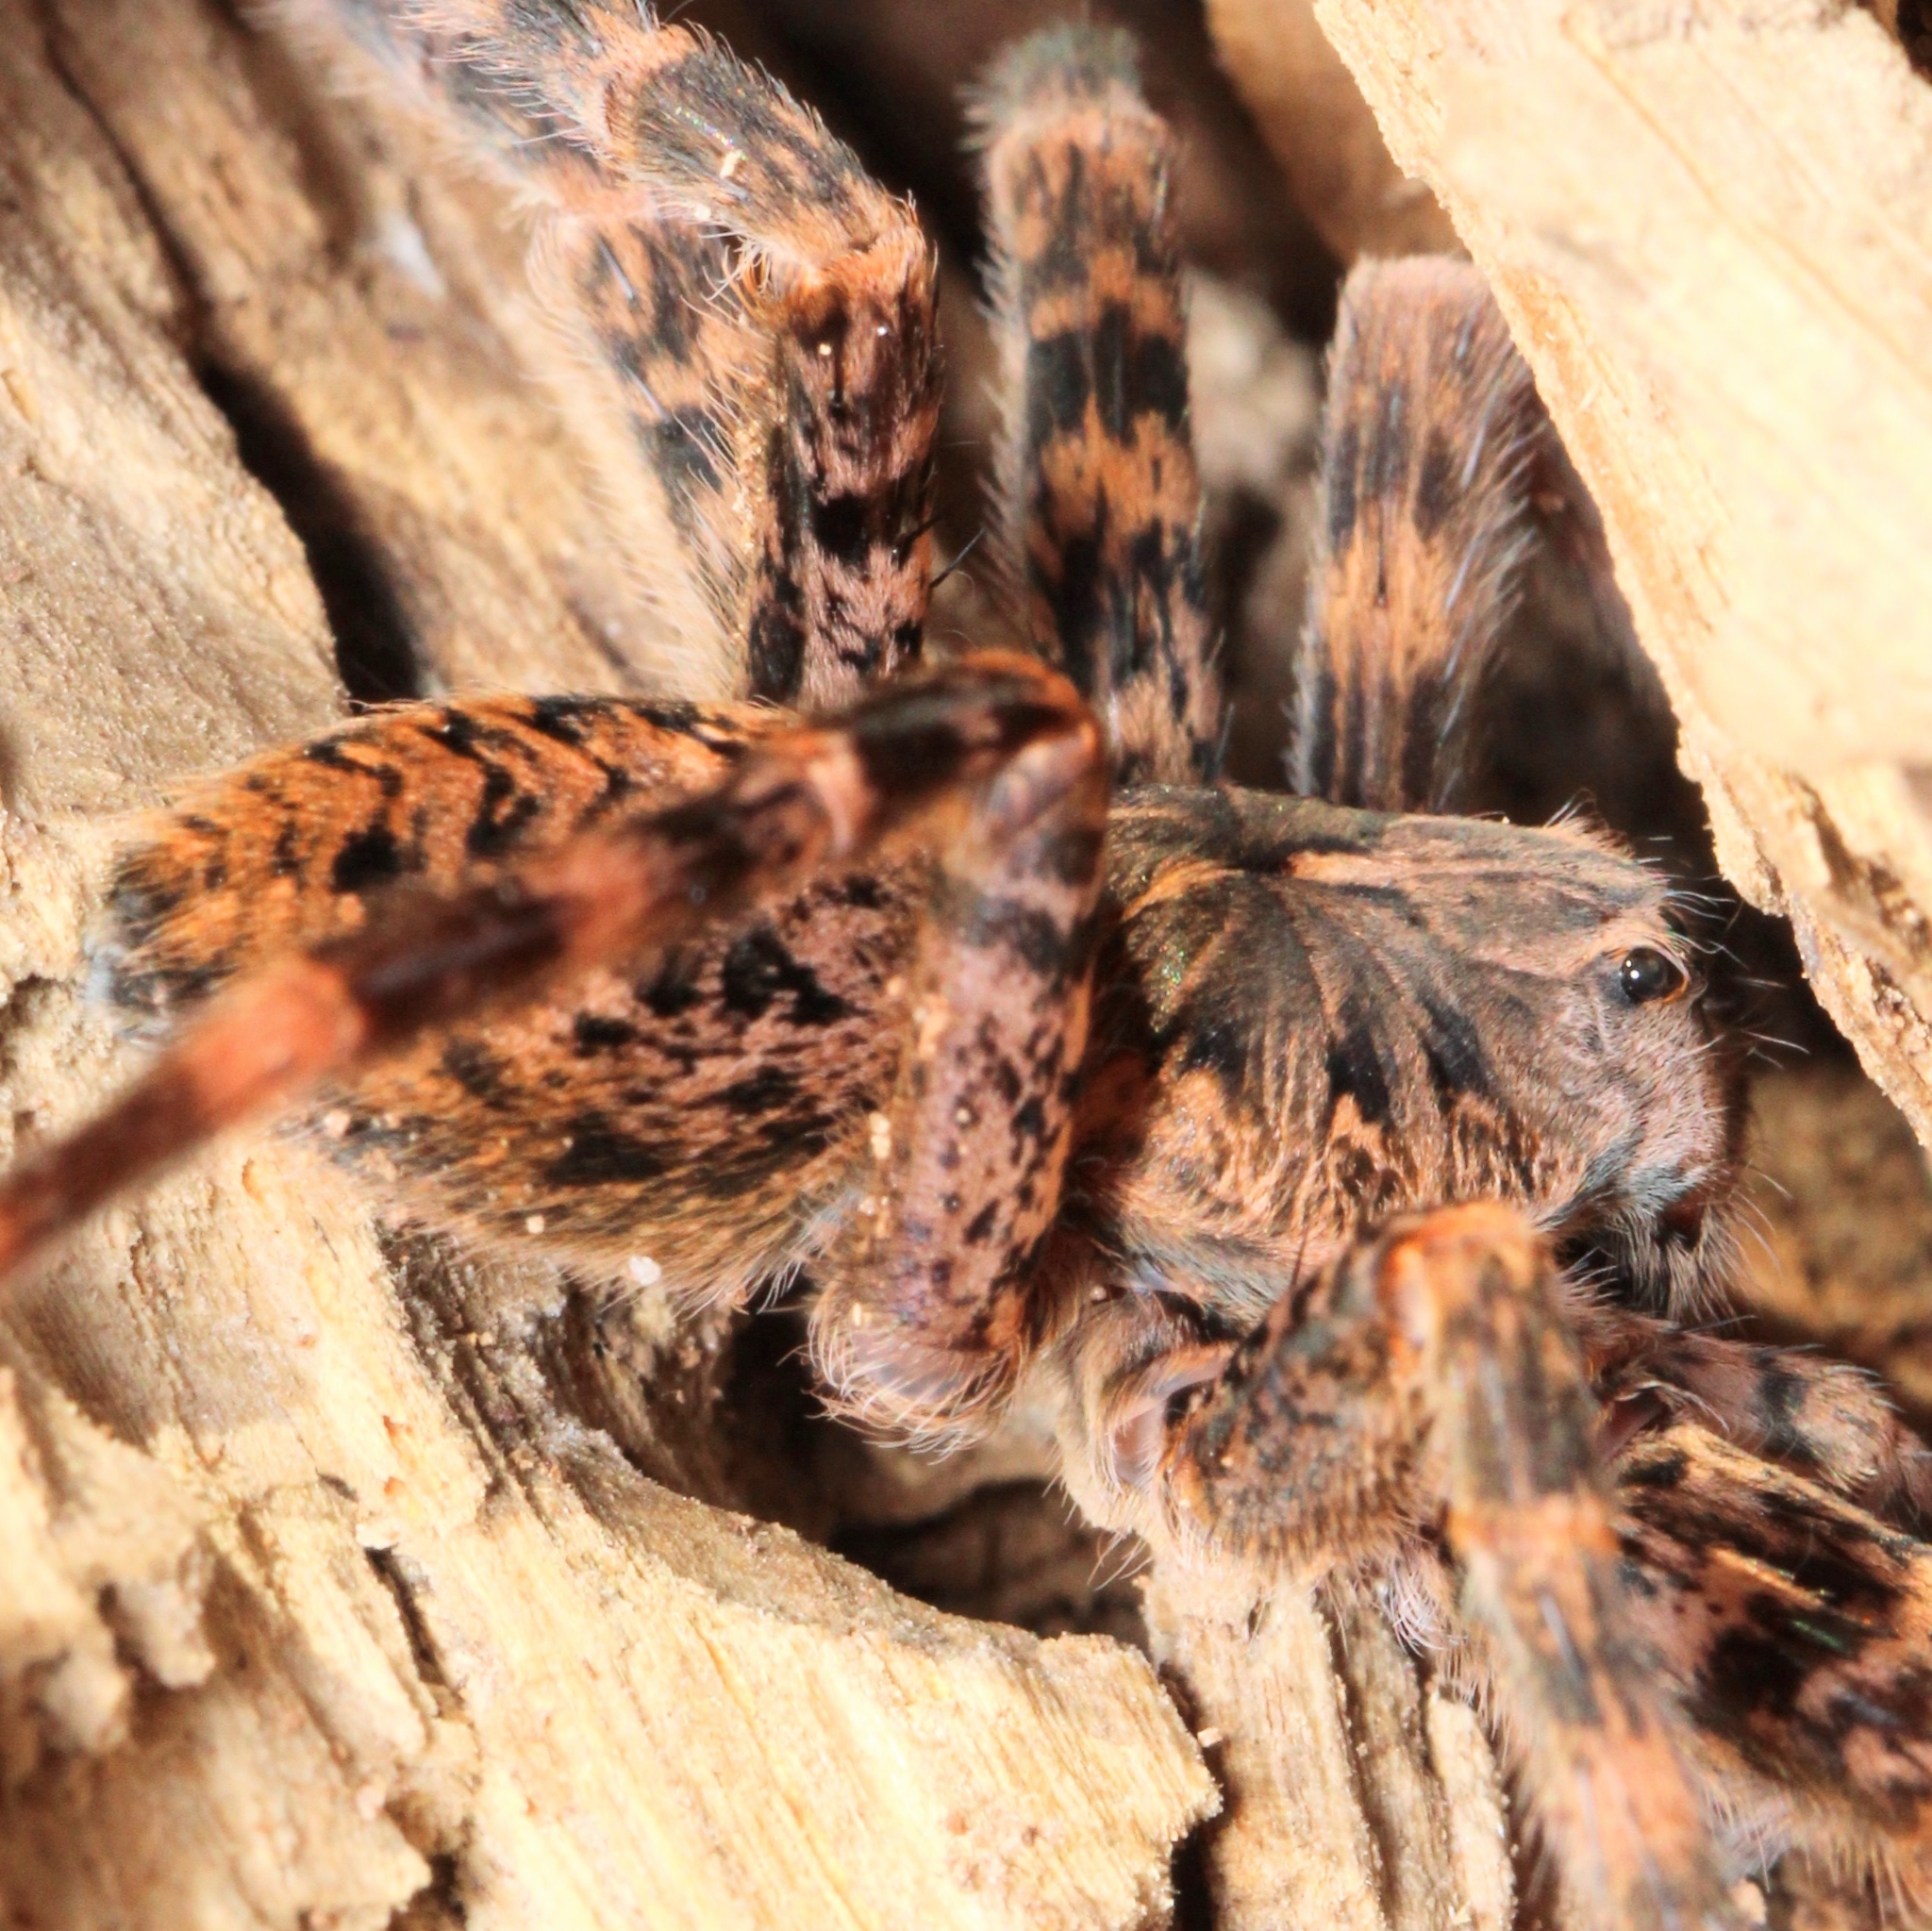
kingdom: Animalia
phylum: Arthropoda
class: Arachnida
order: Araneae
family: Pisauridae
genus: Dolomedes
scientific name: Dolomedes tenebrosus
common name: Dark fishing spider
